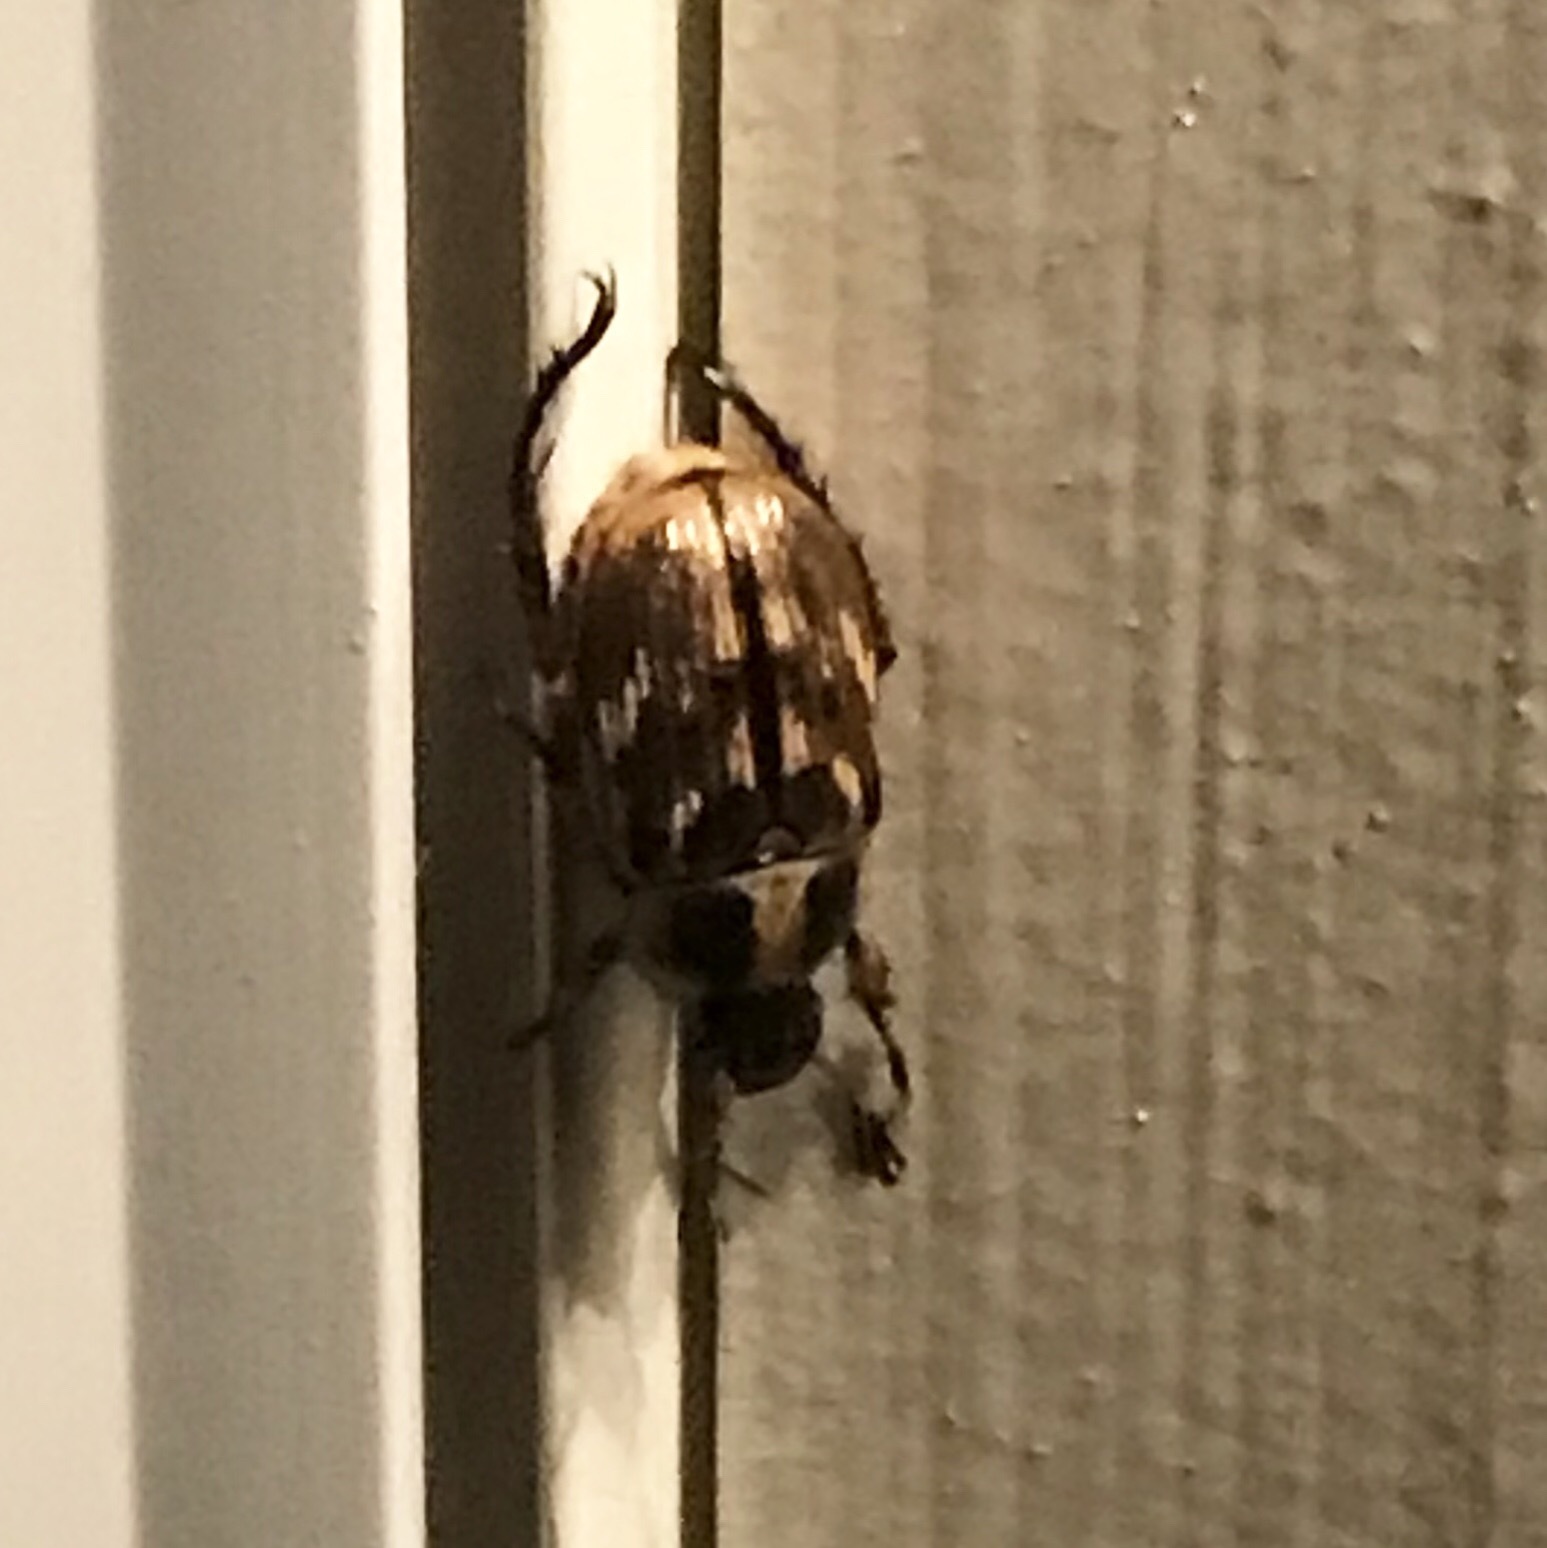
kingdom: Animalia
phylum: Arthropoda
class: Insecta
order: Coleoptera
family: Scarabaeidae
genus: Exomala
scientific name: Exomala orientalis
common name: Oriental beetle
